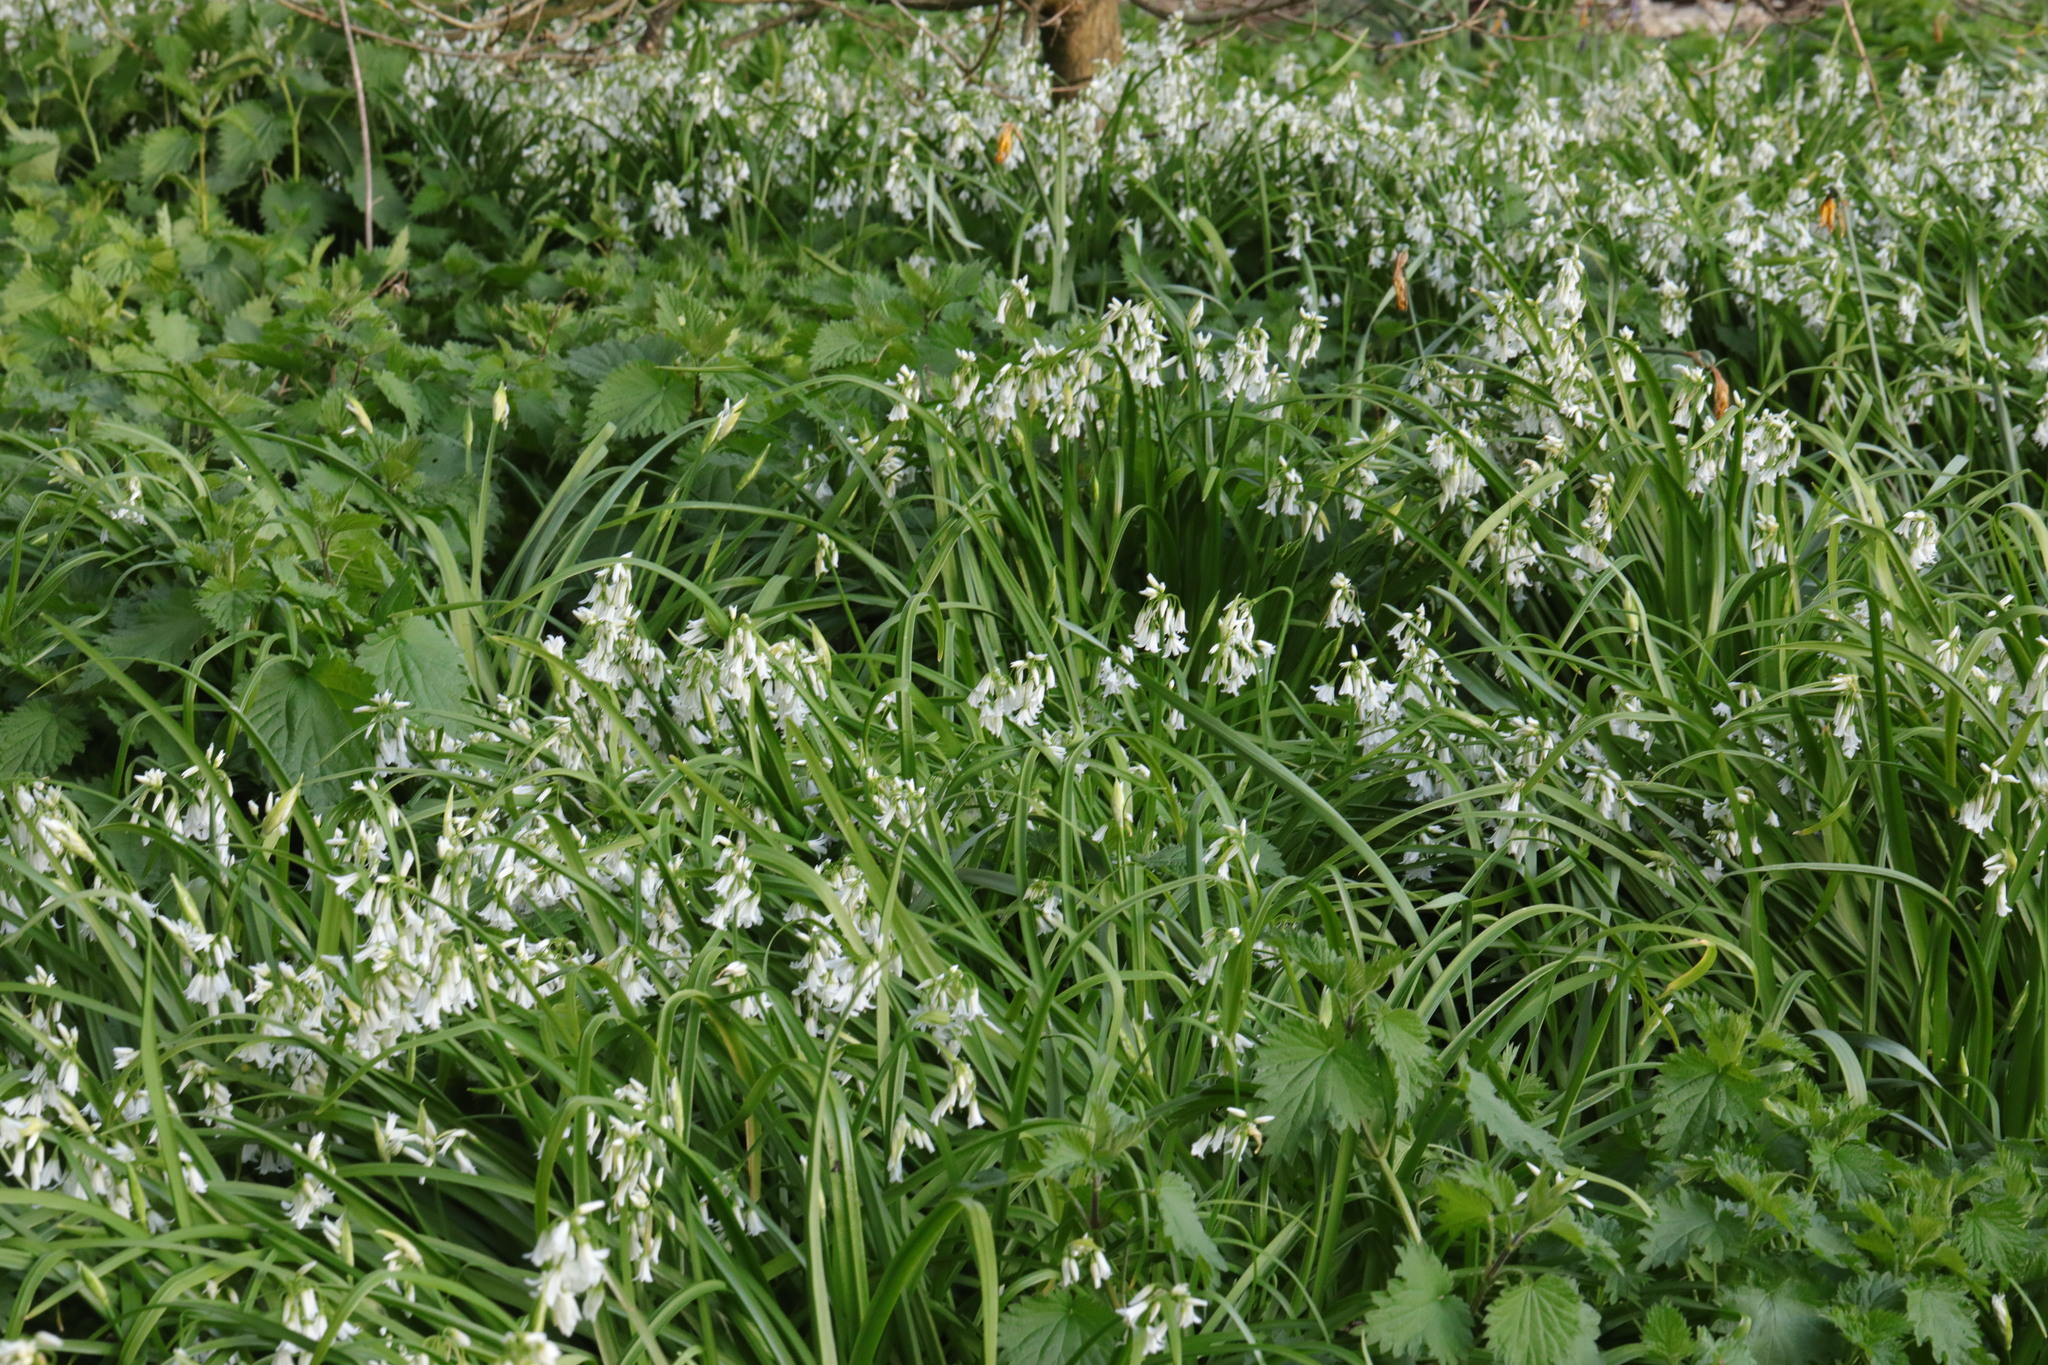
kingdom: Plantae
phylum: Tracheophyta
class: Liliopsida
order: Asparagales
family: Amaryllidaceae
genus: Allium
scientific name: Allium triquetrum
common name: Three-cornered garlic
